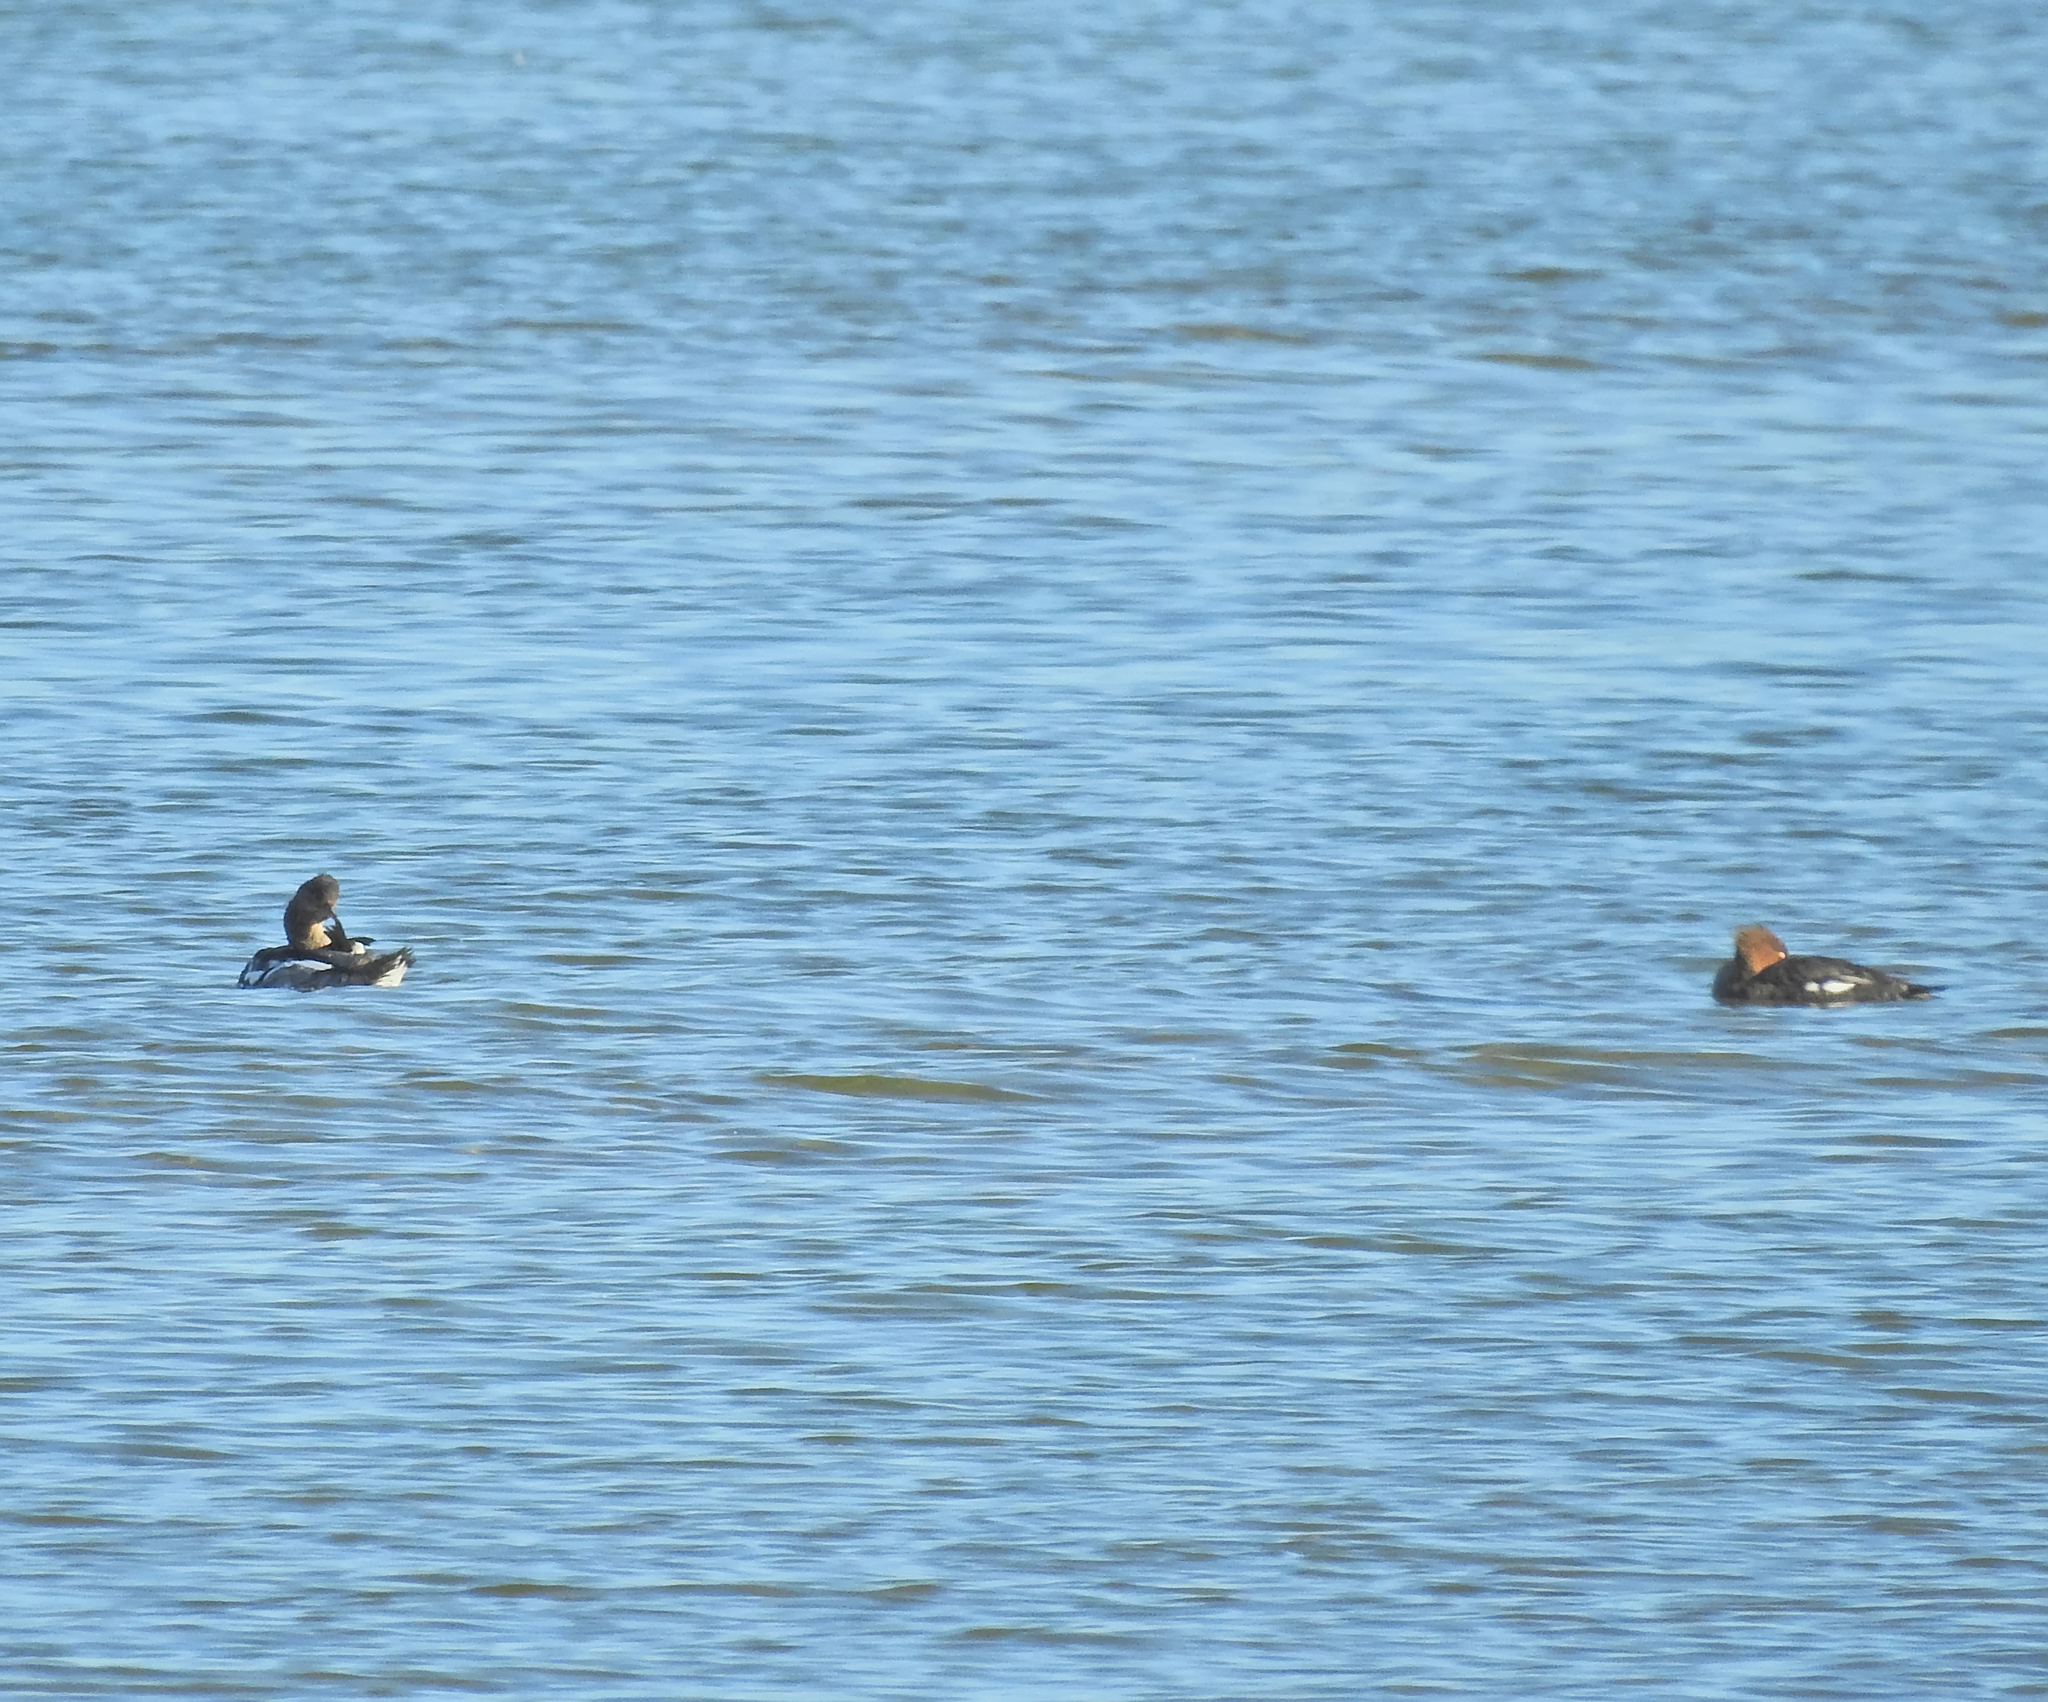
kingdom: Animalia
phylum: Chordata
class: Aves
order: Anseriformes
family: Anatidae
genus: Mergus
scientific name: Mergus merganser
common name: Common merganser
